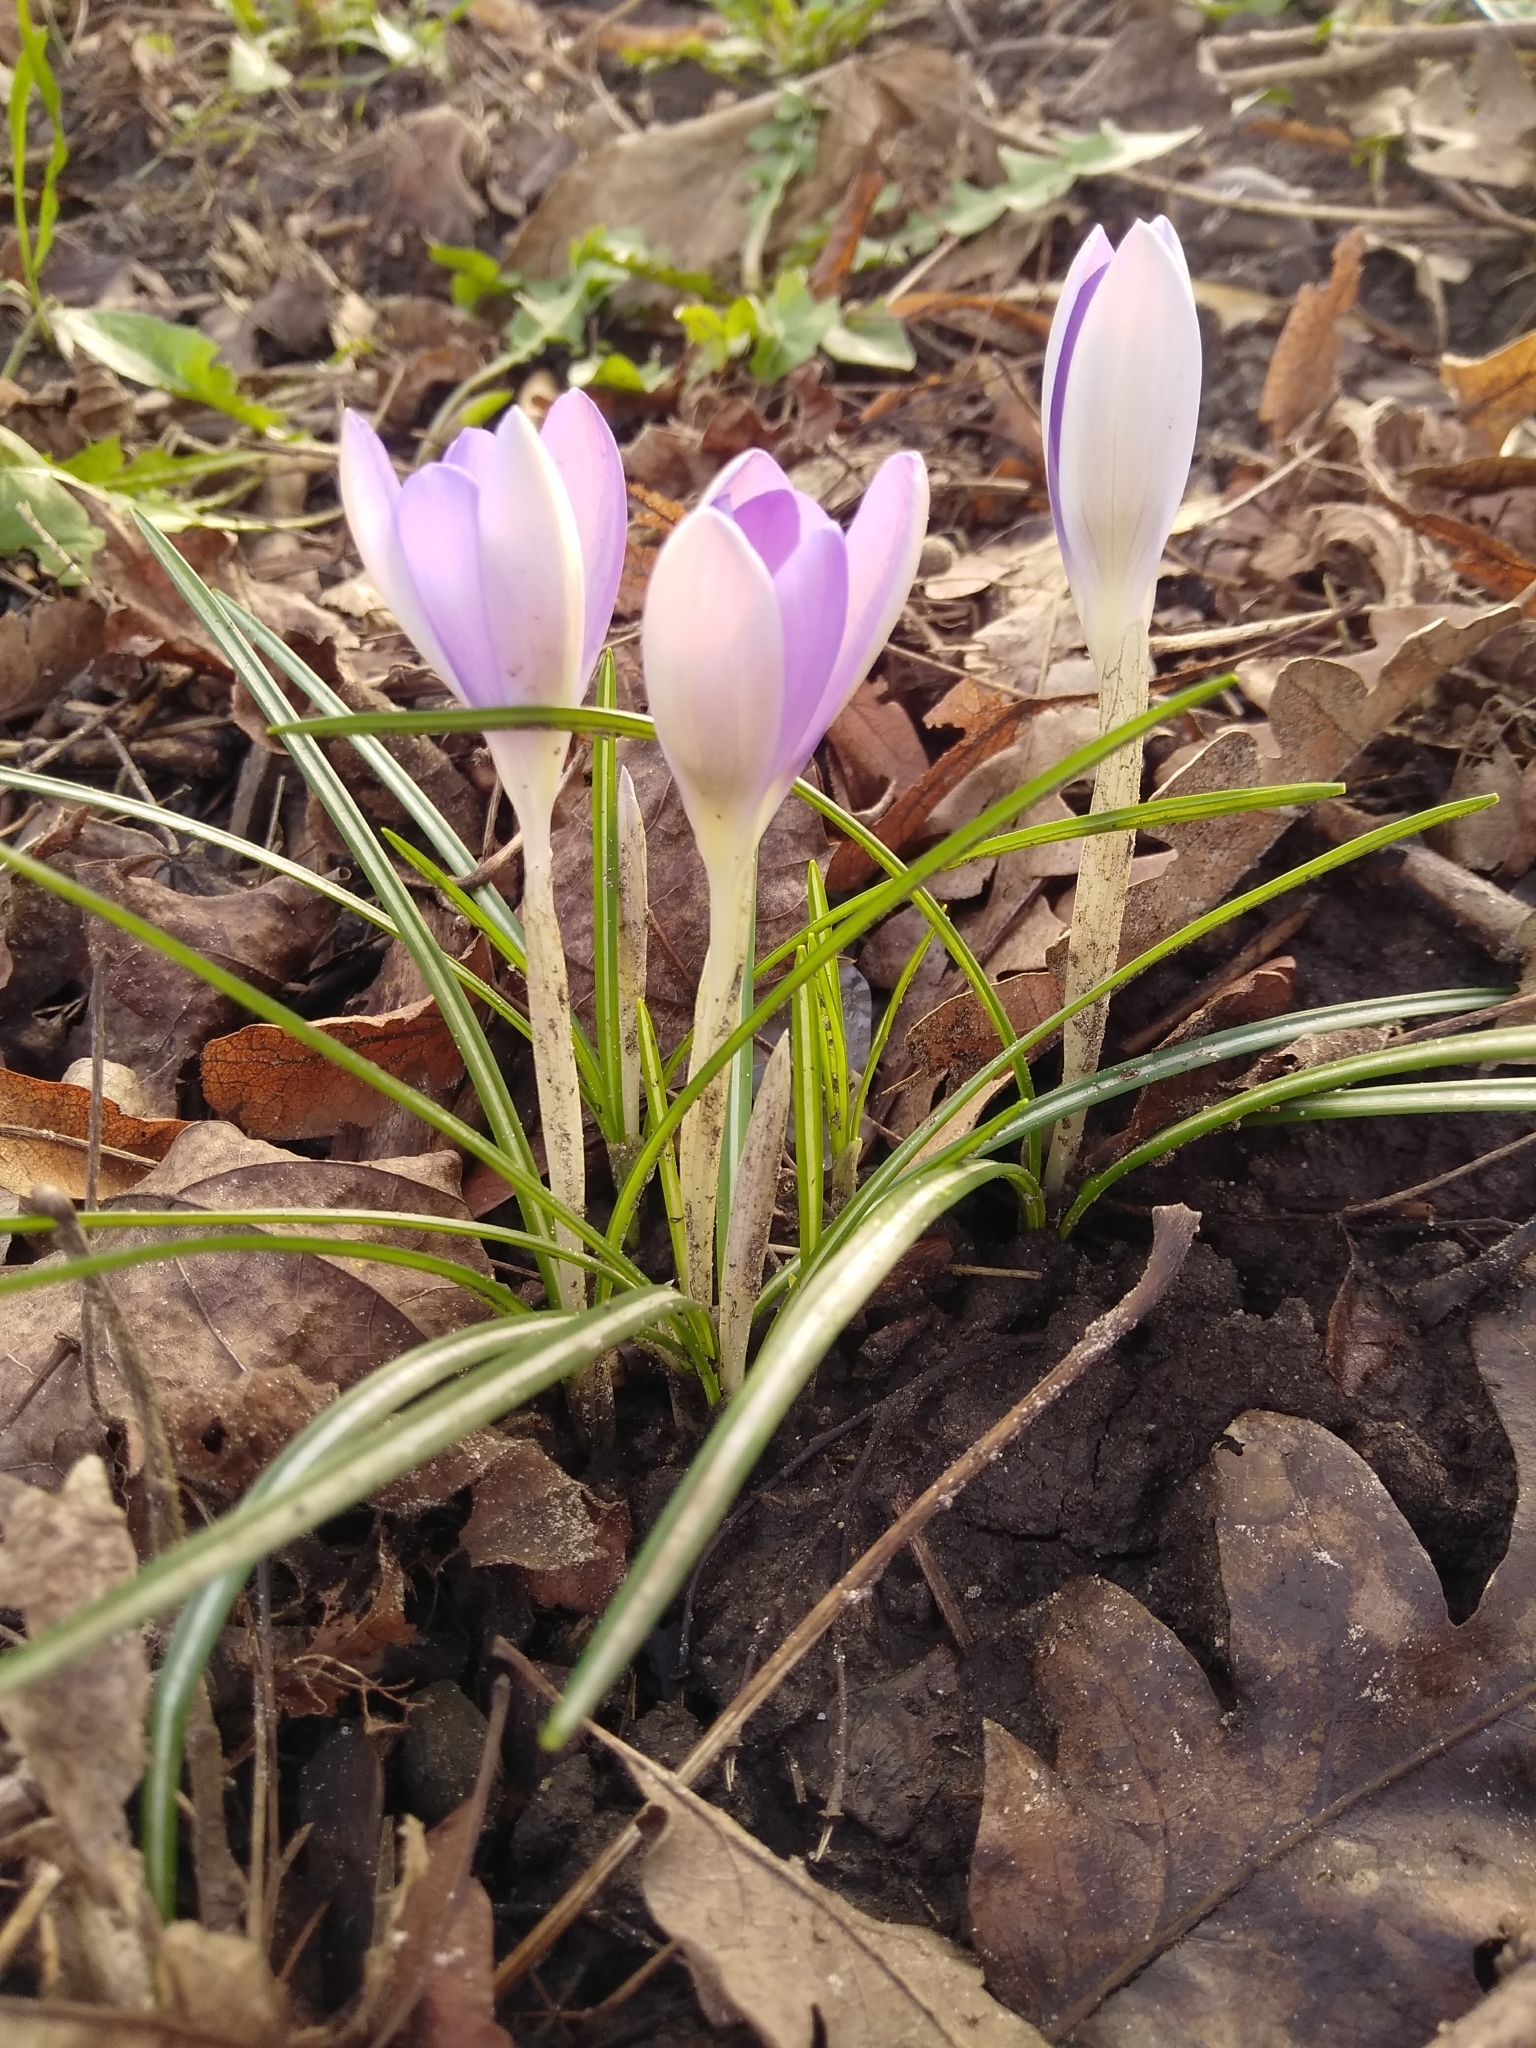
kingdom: Plantae
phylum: Tracheophyta
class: Liliopsida
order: Asparagales
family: Iridaceae
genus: Crocus
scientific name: Crocus tommasinianus
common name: Early crocus
